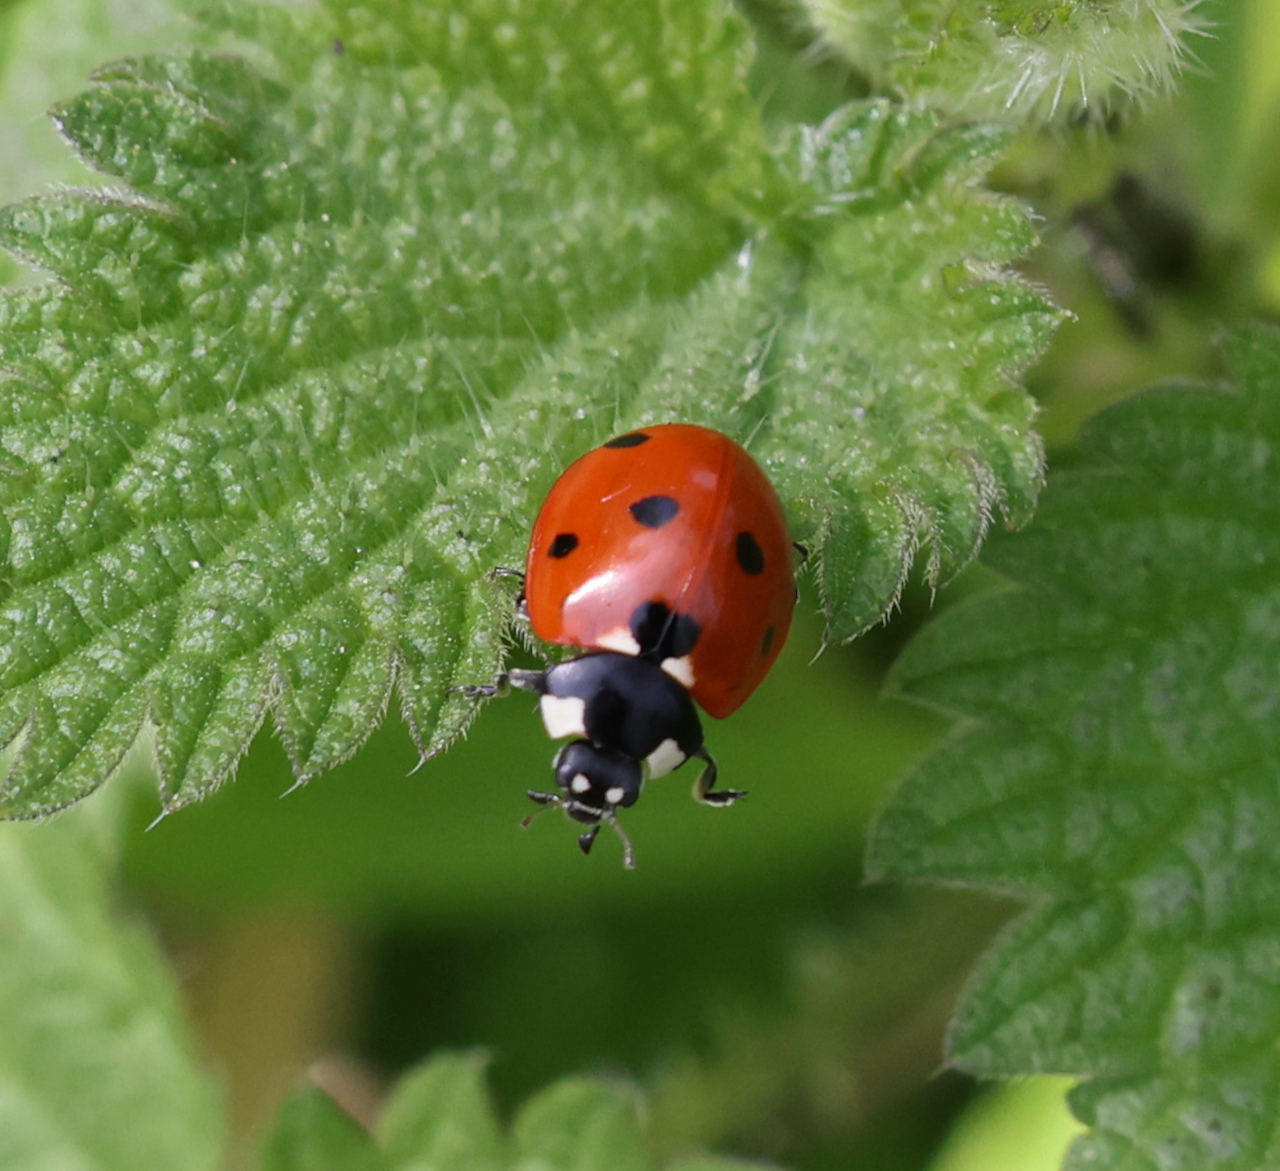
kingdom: Animalia
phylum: Arthropoda
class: Insecta
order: Coleoptera
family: Coccinellidae
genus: Coccinella
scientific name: Coccinella septempunctata
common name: Sevenspotted lady beetle
